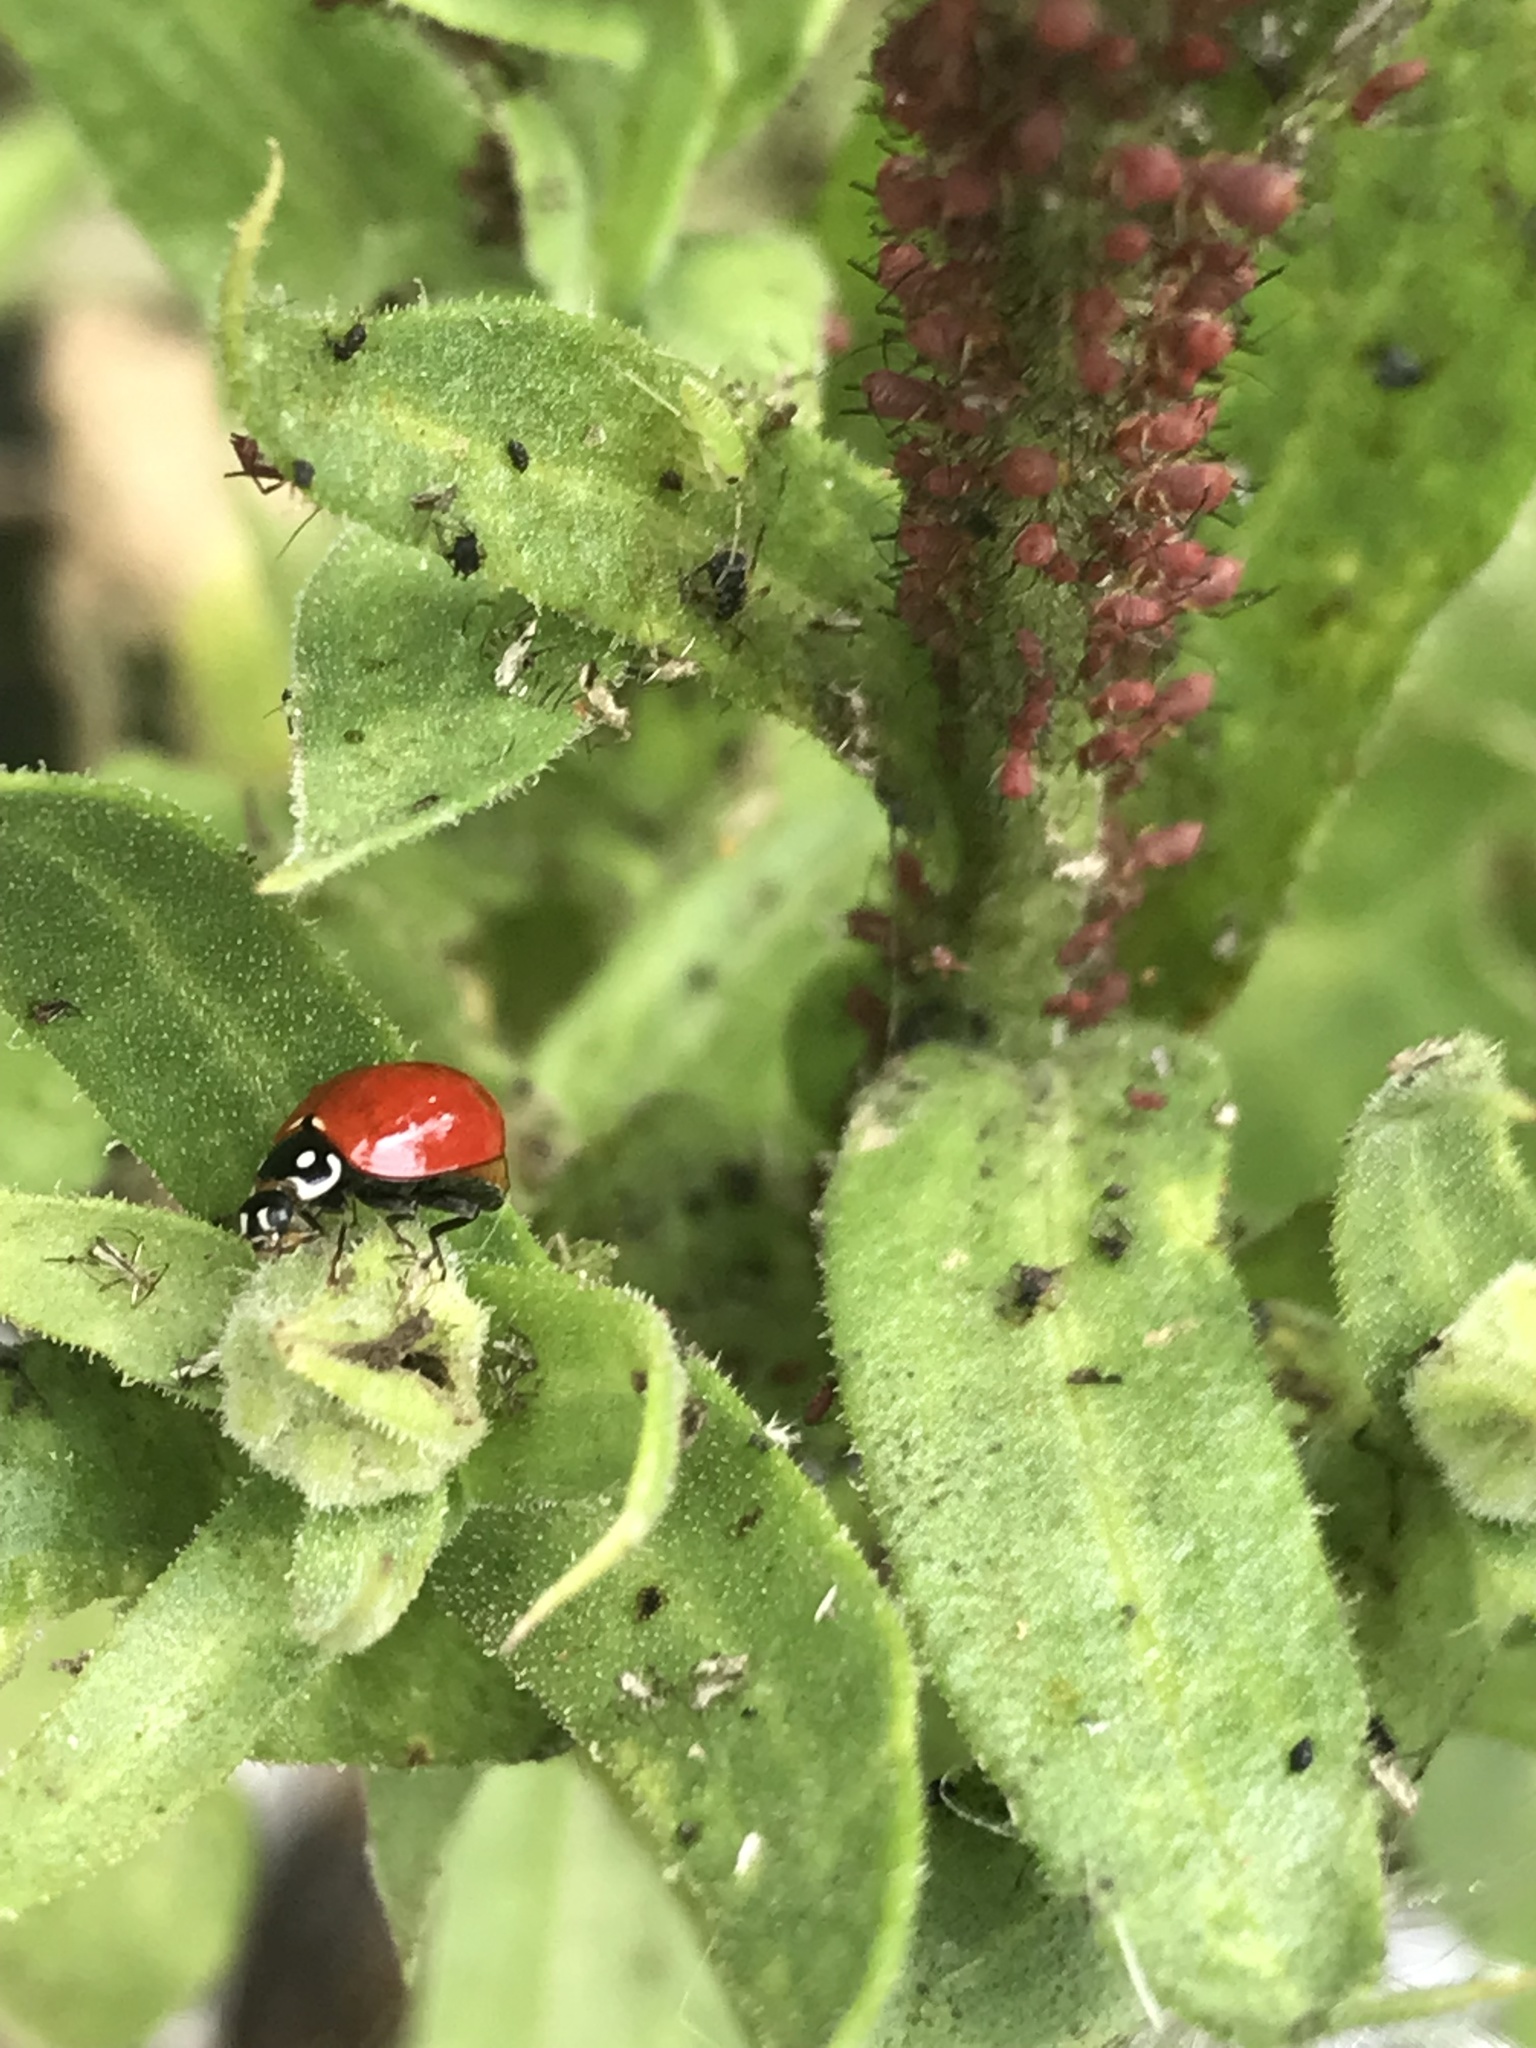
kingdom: Animalia
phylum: Arthropoda
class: Insecta
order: Coleoptera
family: Coccinellidae
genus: Cycloneda
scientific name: Cycloneda sanguinea
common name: Ladybird beetle
